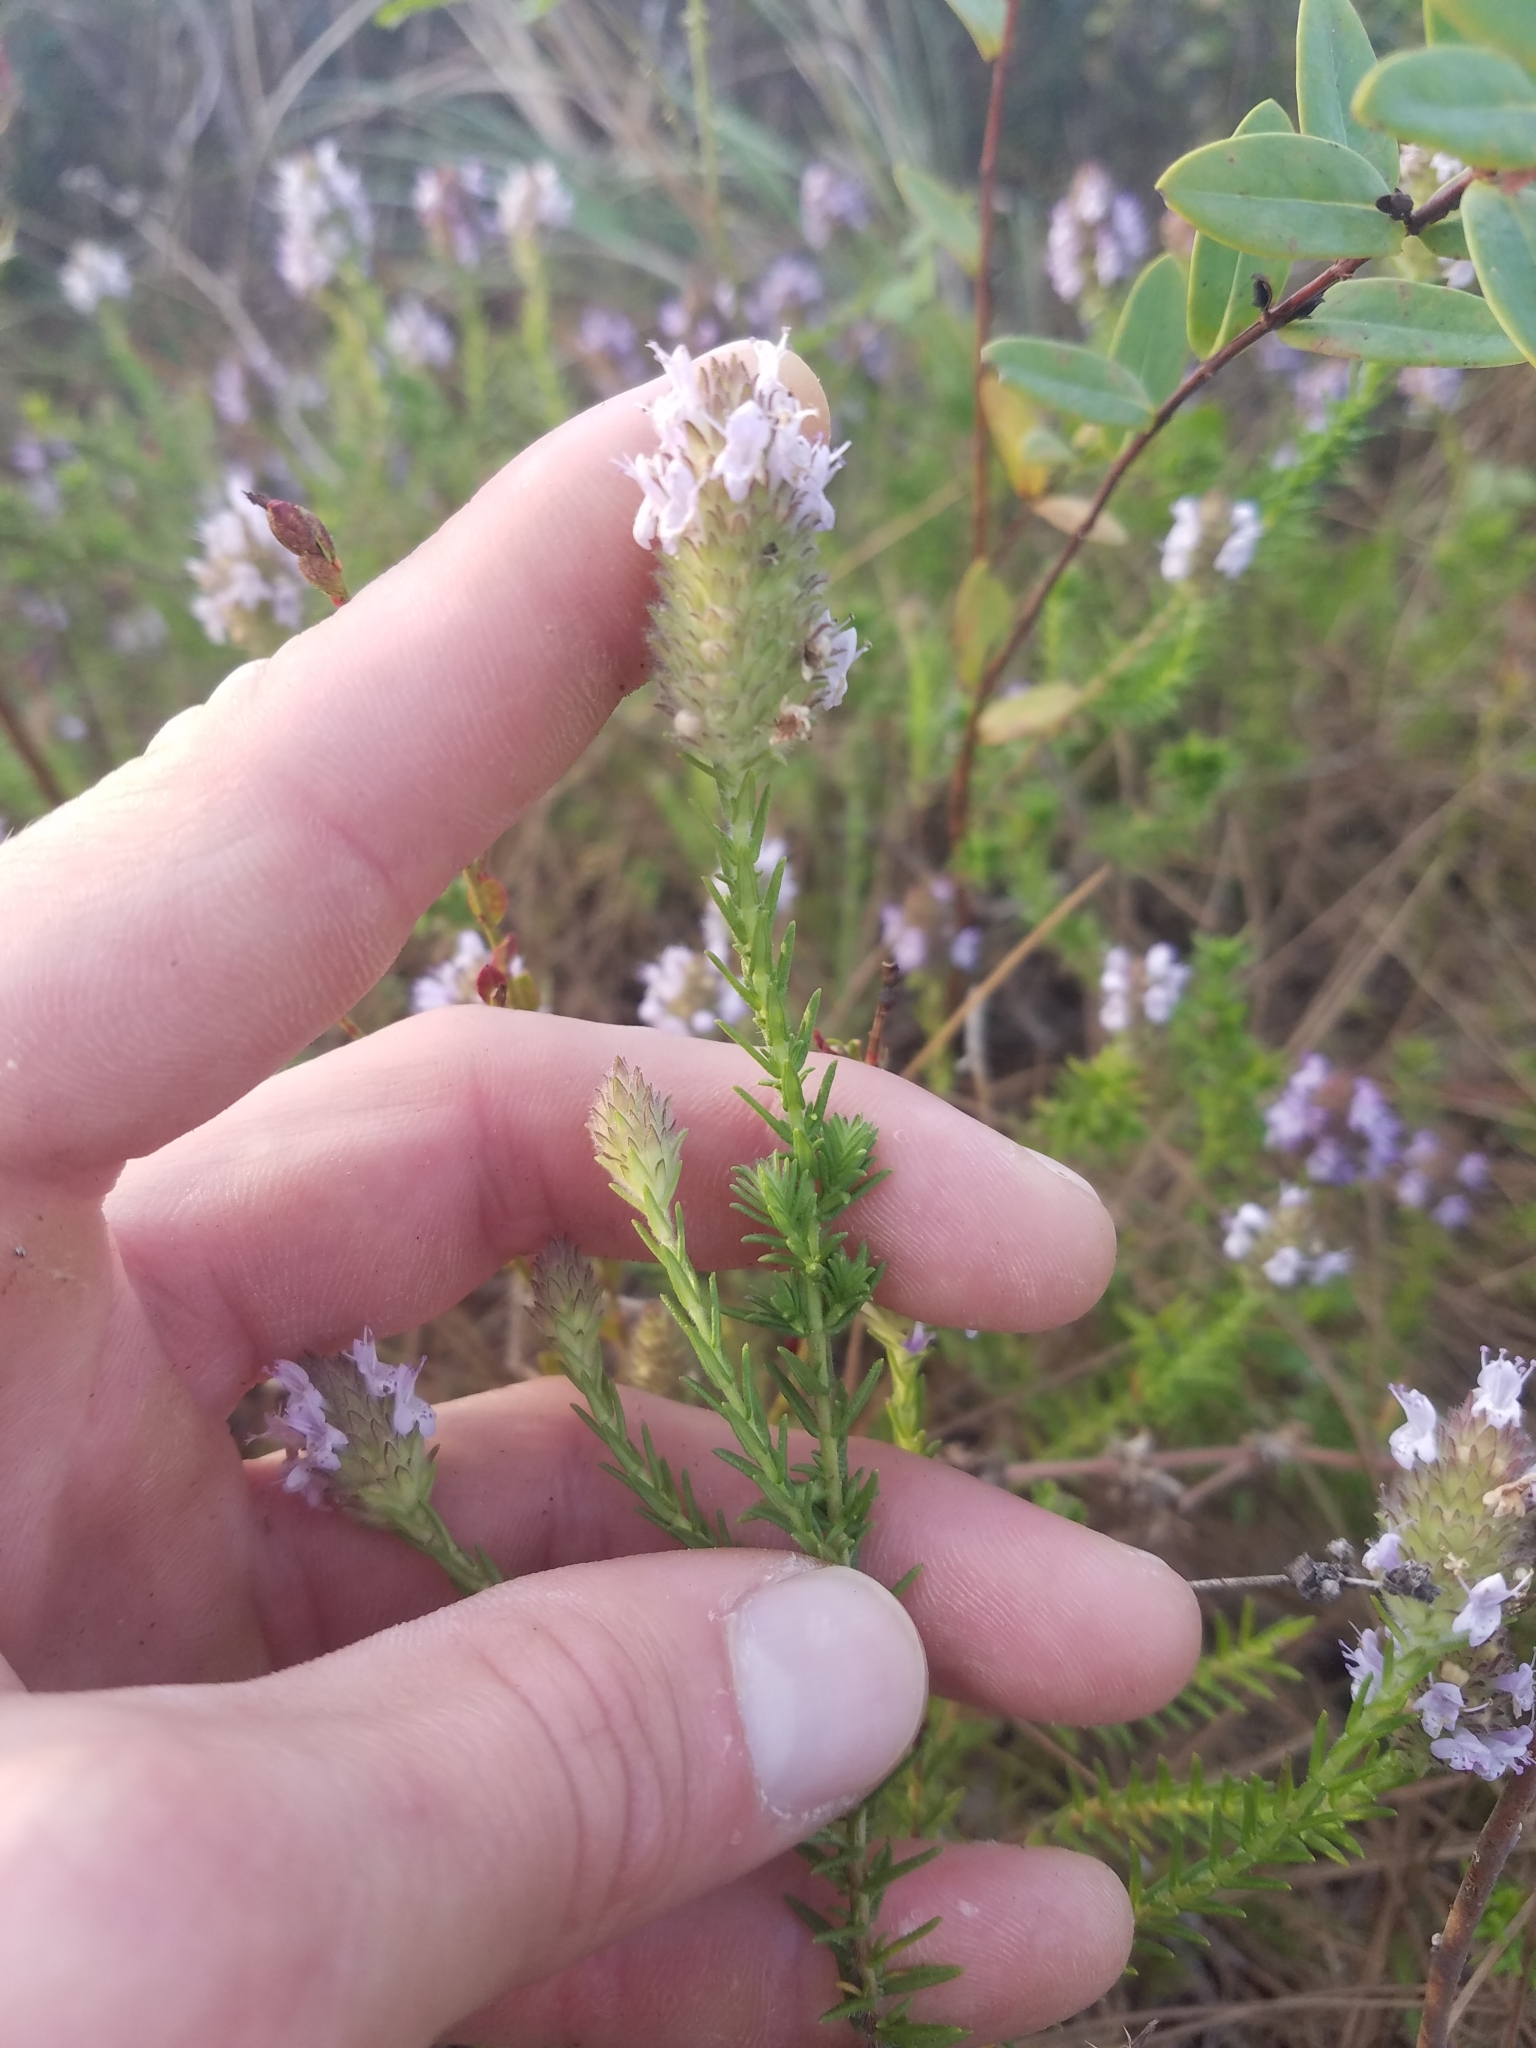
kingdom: Plantae
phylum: Tracheophyta
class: Magnoliopsida
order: Lamiales
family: Lamiaceae
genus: Piloblephis
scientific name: Piloblephis rigida
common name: Wild pennyroyal
